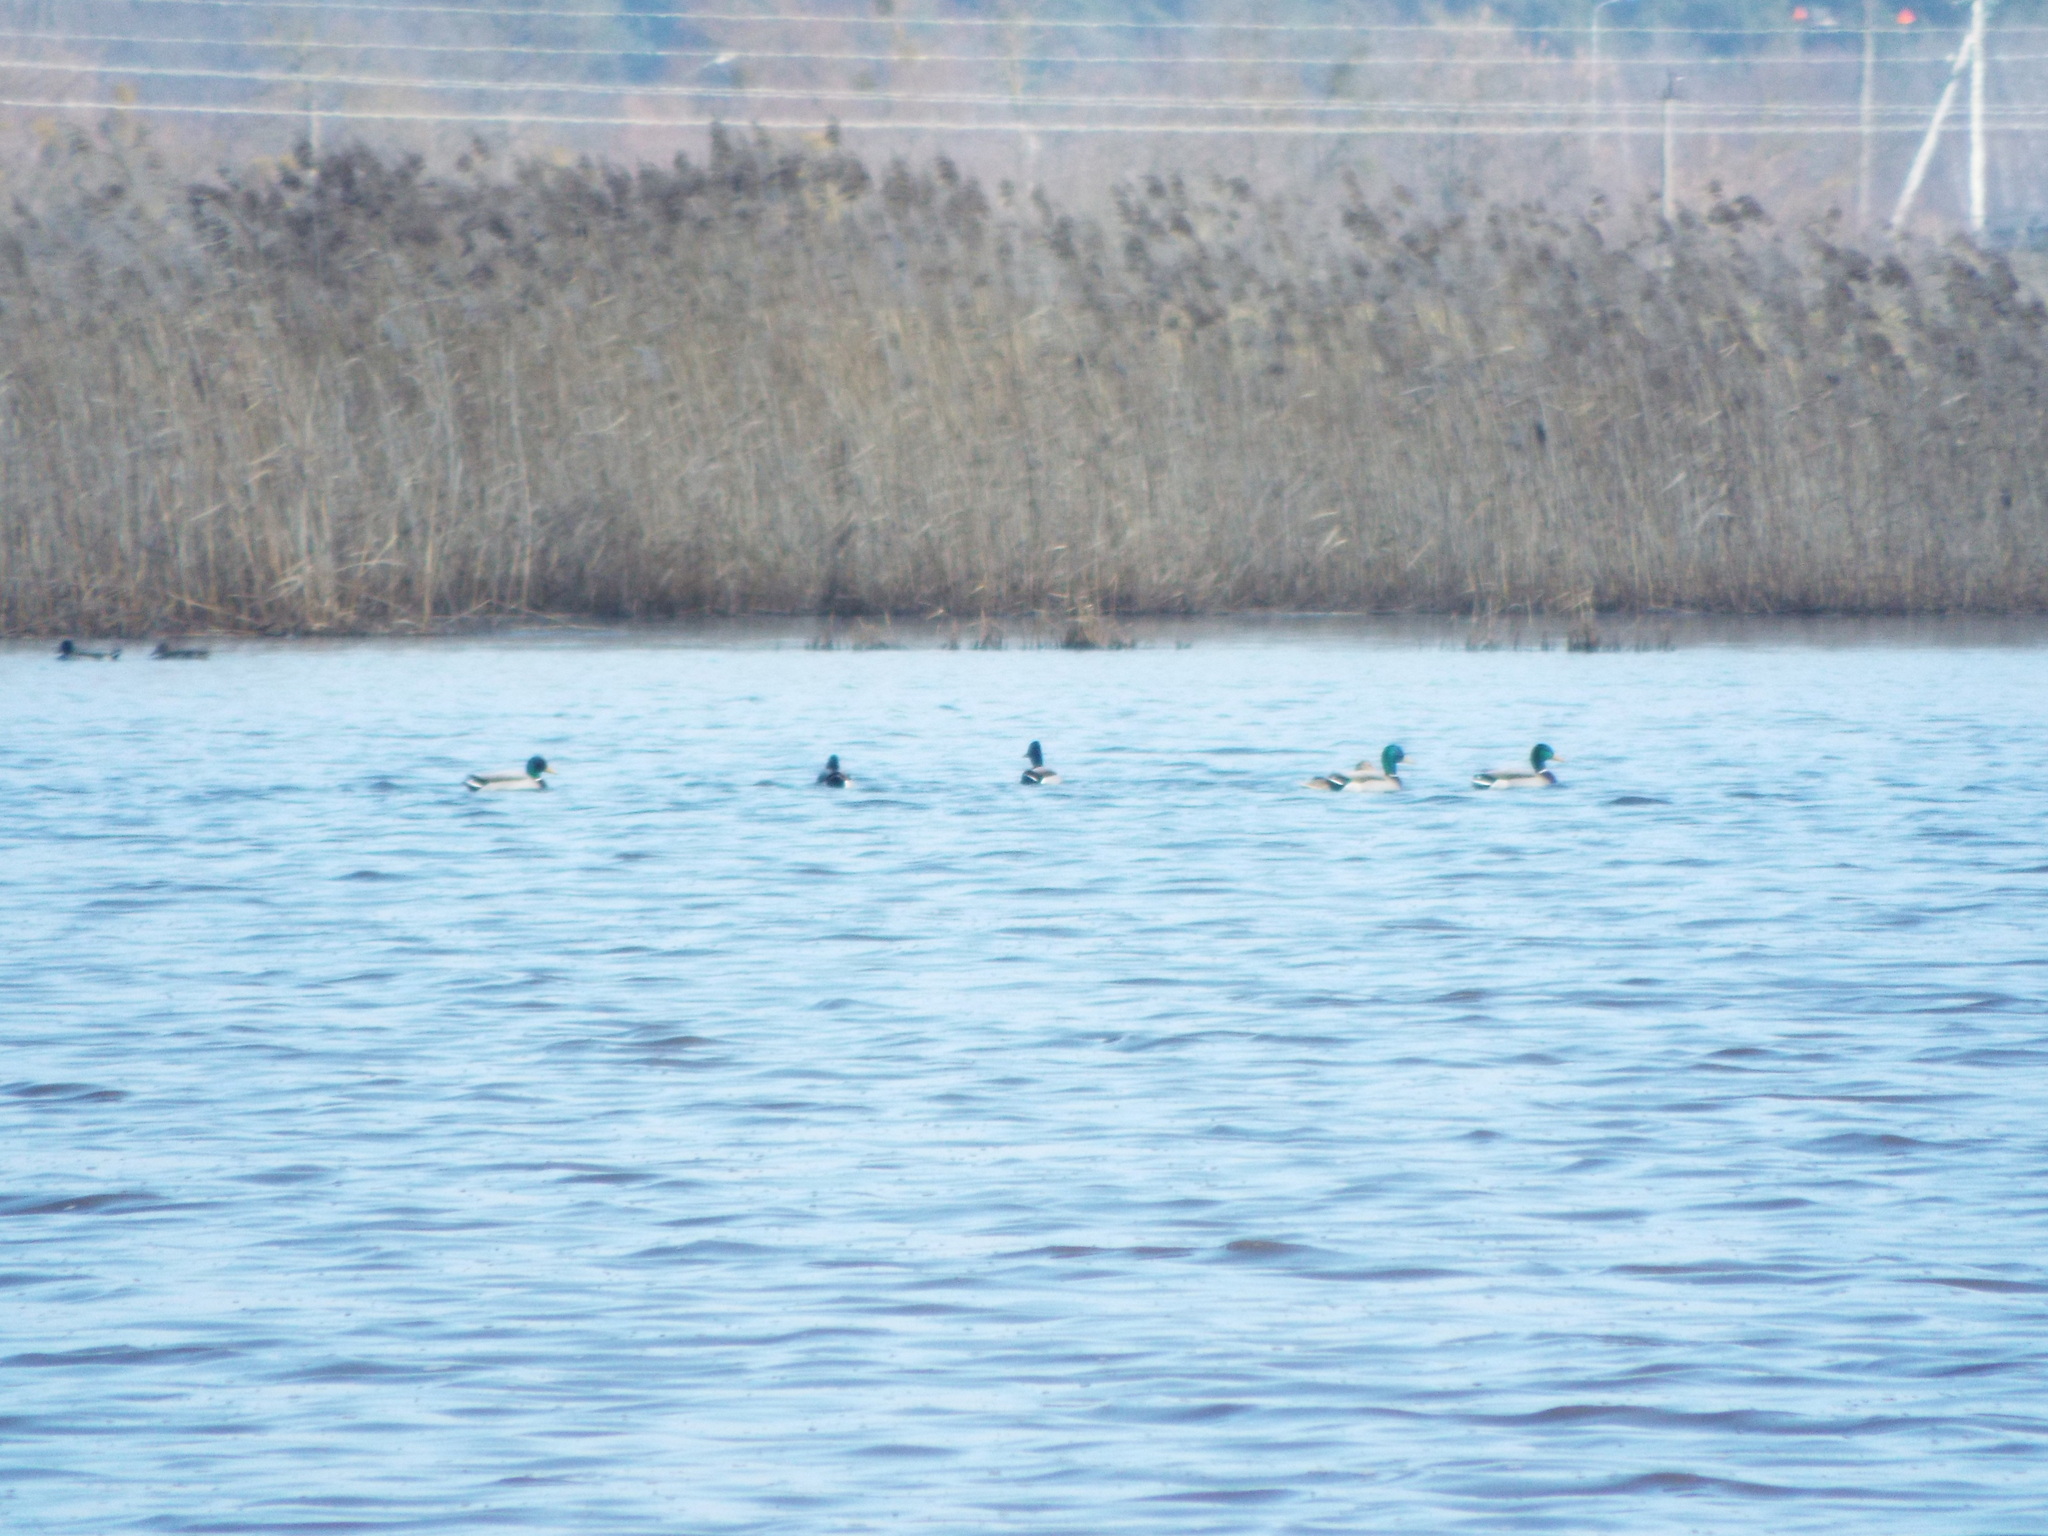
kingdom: Animalia
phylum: Chordata
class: Aves
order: Anseriformes
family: Anatidae
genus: Anas
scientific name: Anas platyrhynchos
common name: Mallard
